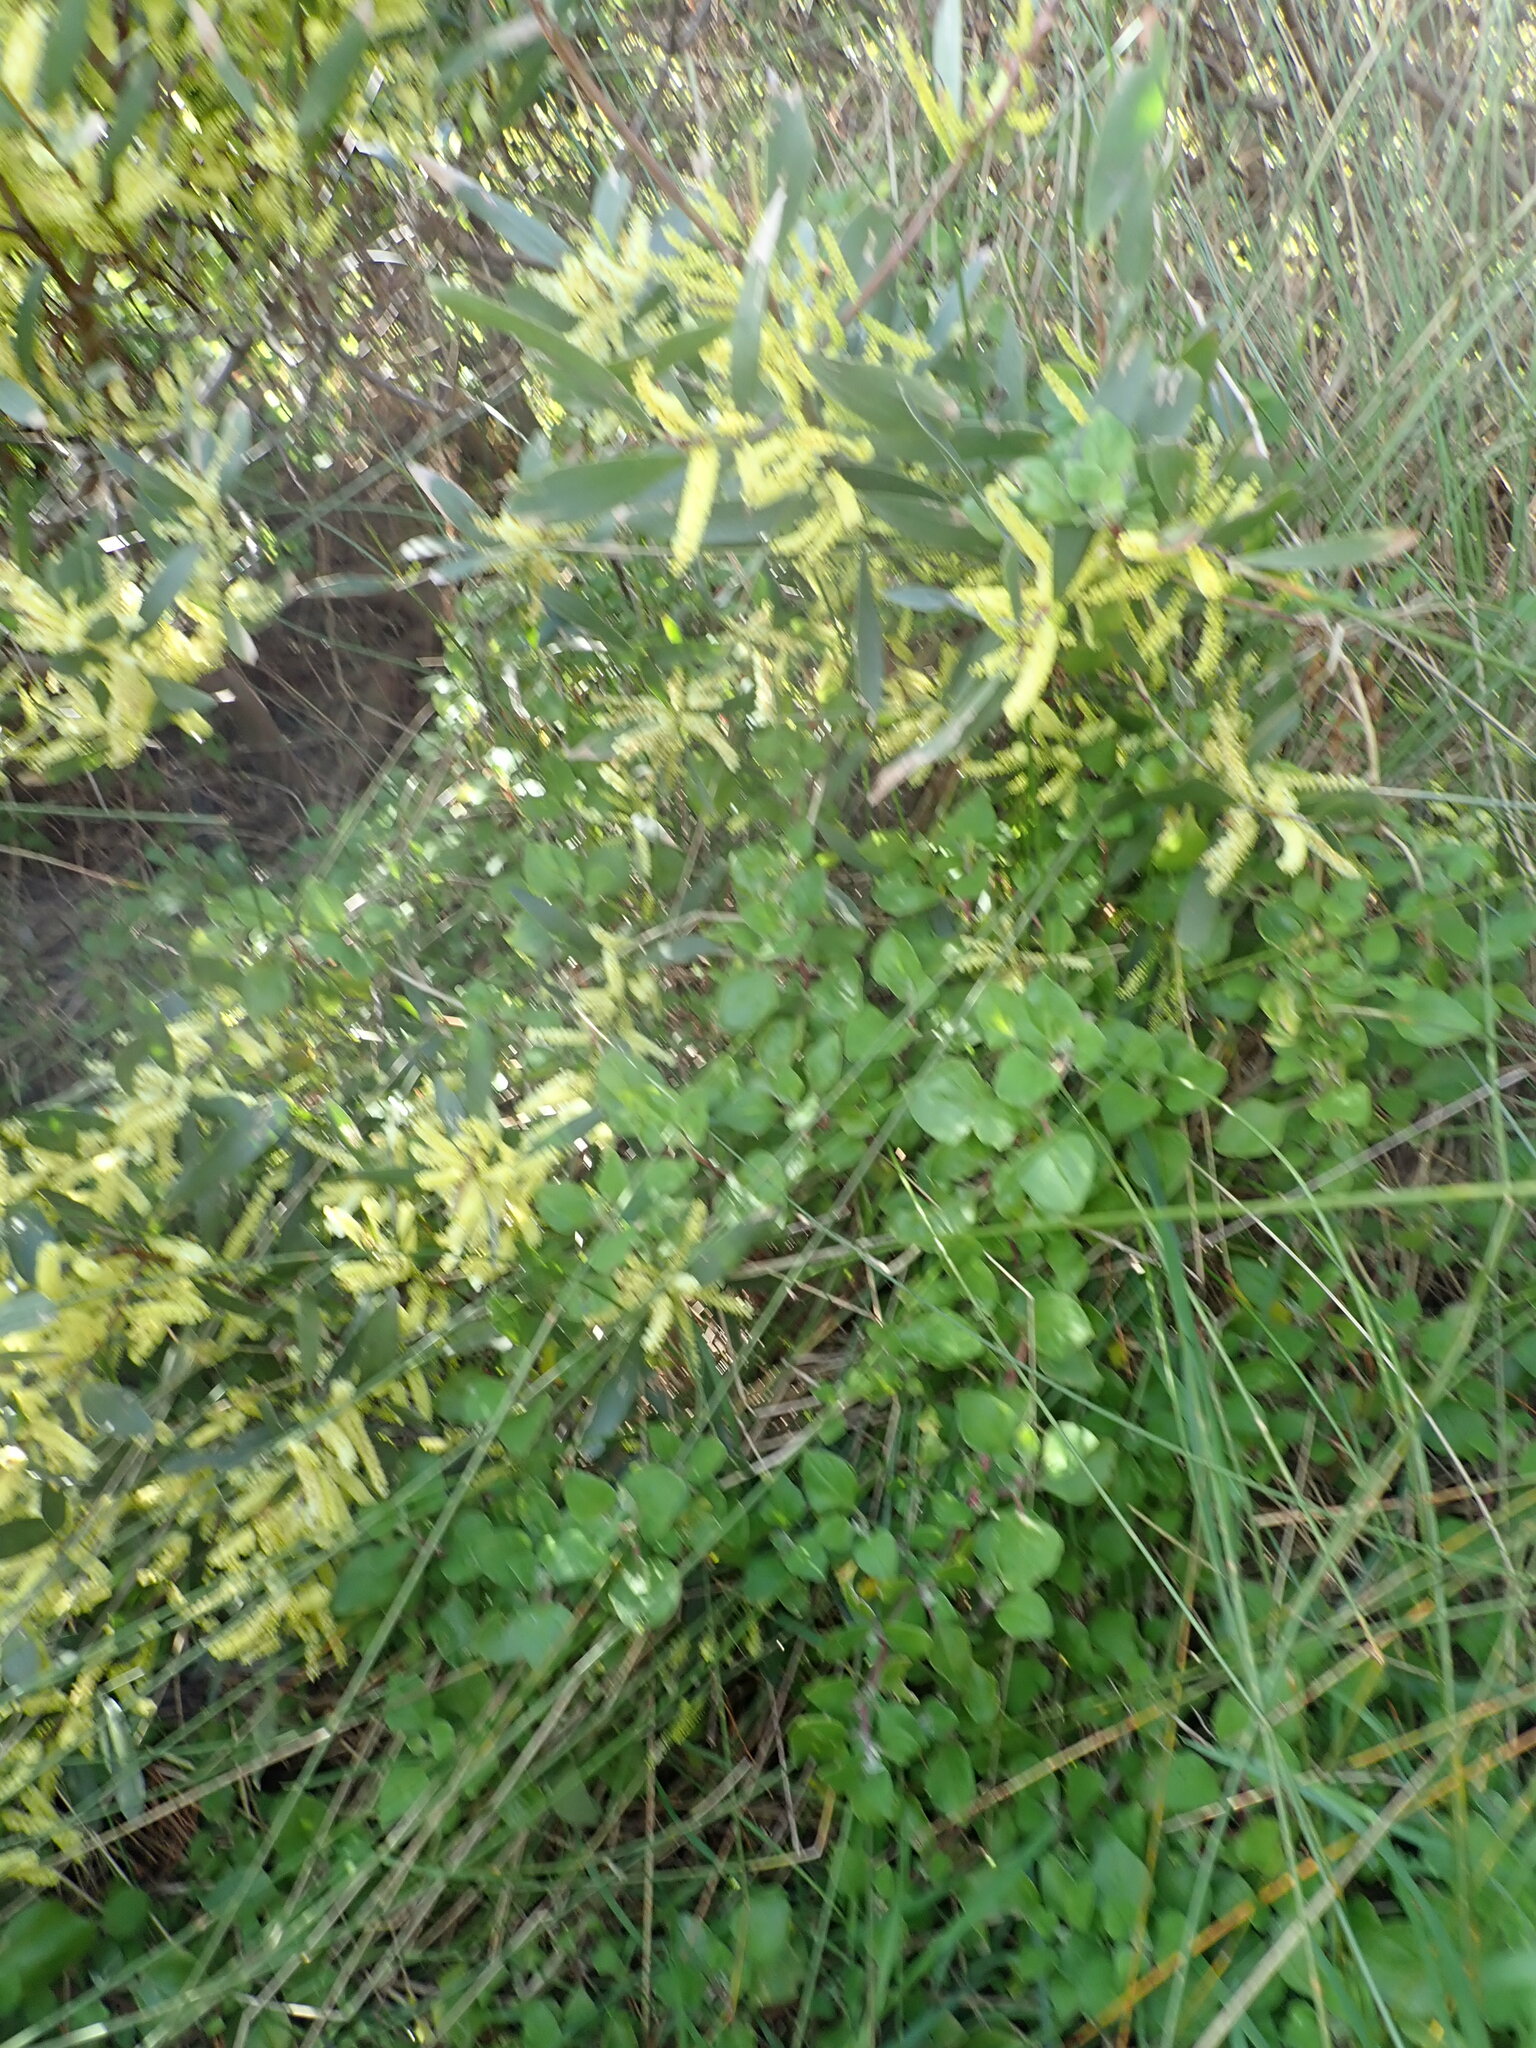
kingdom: Plantae
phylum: Tracheophyta
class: Magnoliopsida
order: Fabales
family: Fabaceae
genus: Acacia
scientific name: Acacia longifolia
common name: Sydney golden wattle
